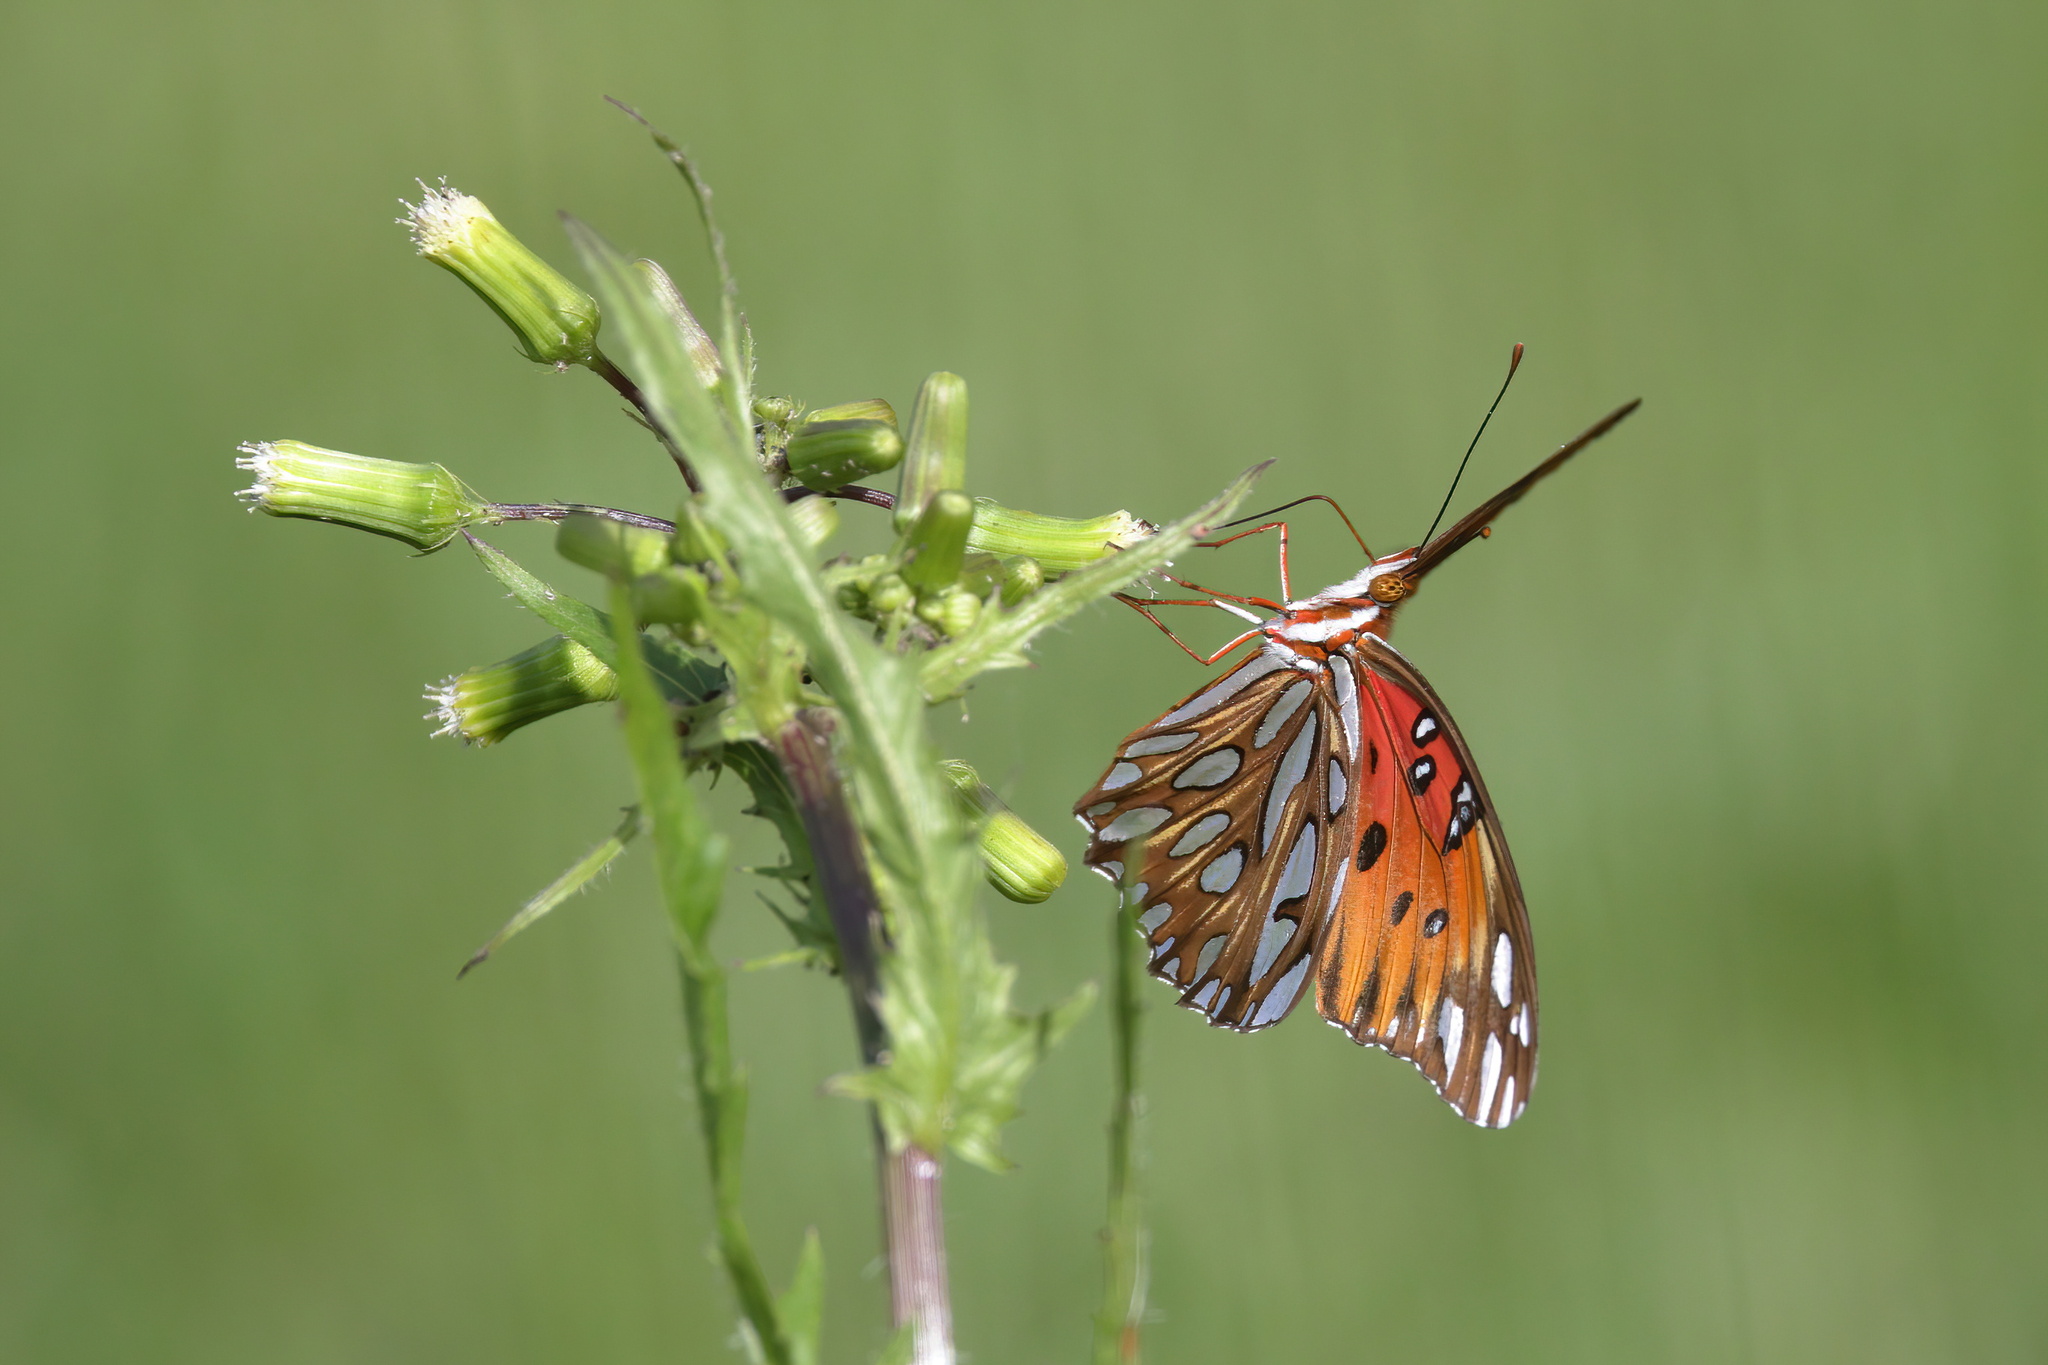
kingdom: Animalia
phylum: Arthropoda
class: Insecta
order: Lepidoptera
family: Nymphalidae
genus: Dione
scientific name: Dione vanillae
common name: Gulf fritillary
